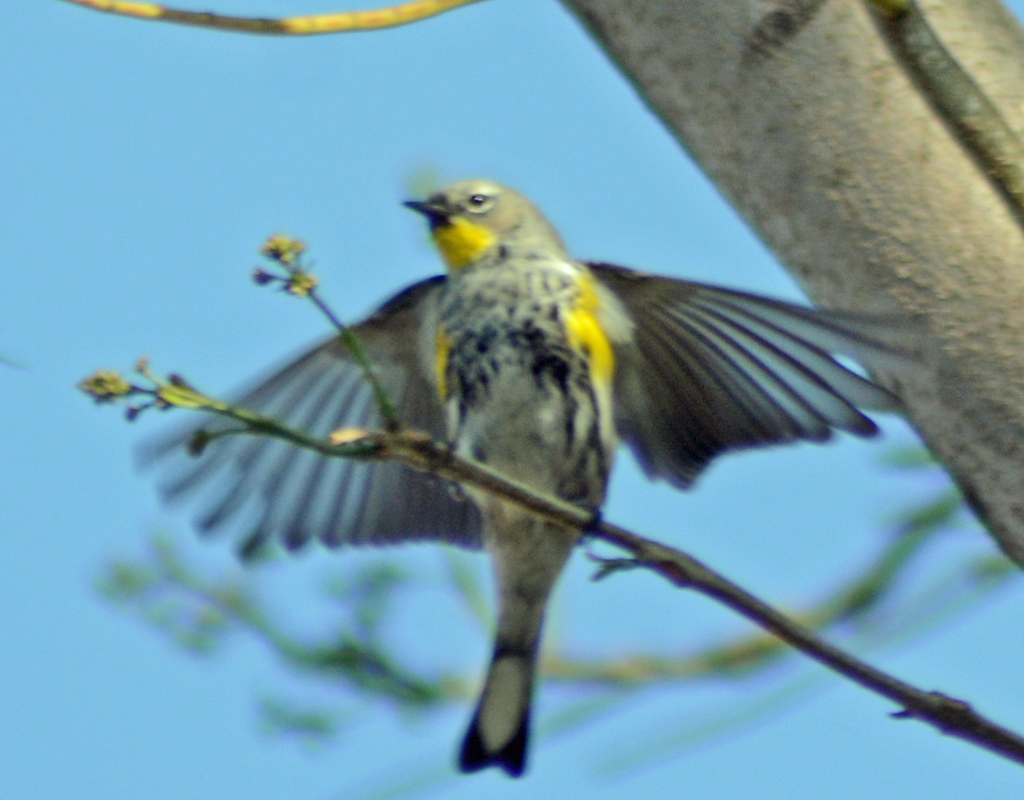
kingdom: Animalia
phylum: Chordata
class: Aves
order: Passeriformes
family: Parulidae
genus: Setophaga
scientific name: Setophaga coronata
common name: Myrtle warbler
